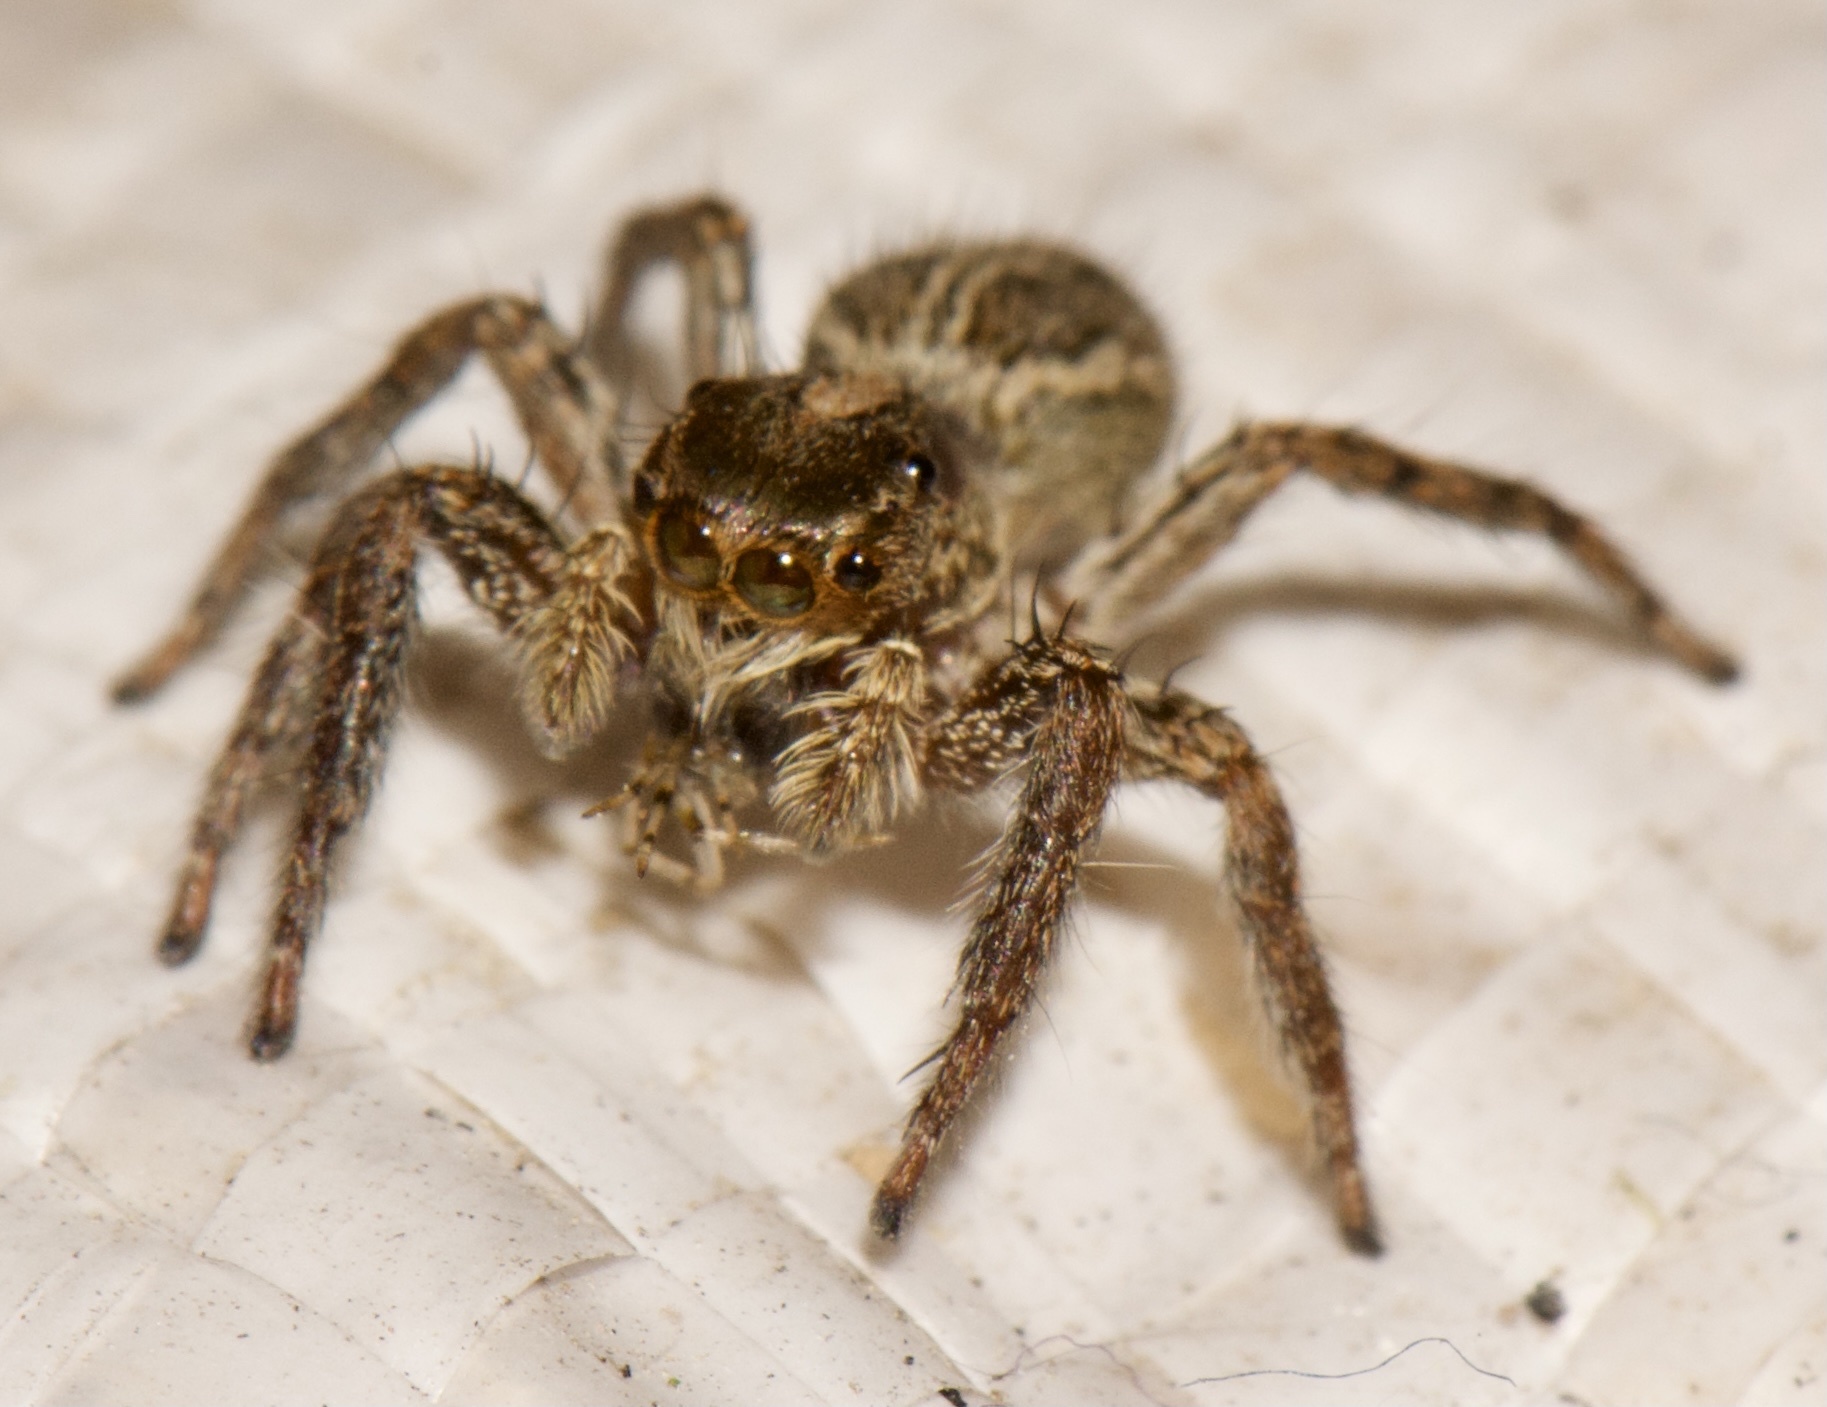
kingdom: Animalia
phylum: Arthropoda
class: Arachnida
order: Araneae
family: Salticidae
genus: Plexippus
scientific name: Plexippus paykulli
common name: Pantropical jumper
